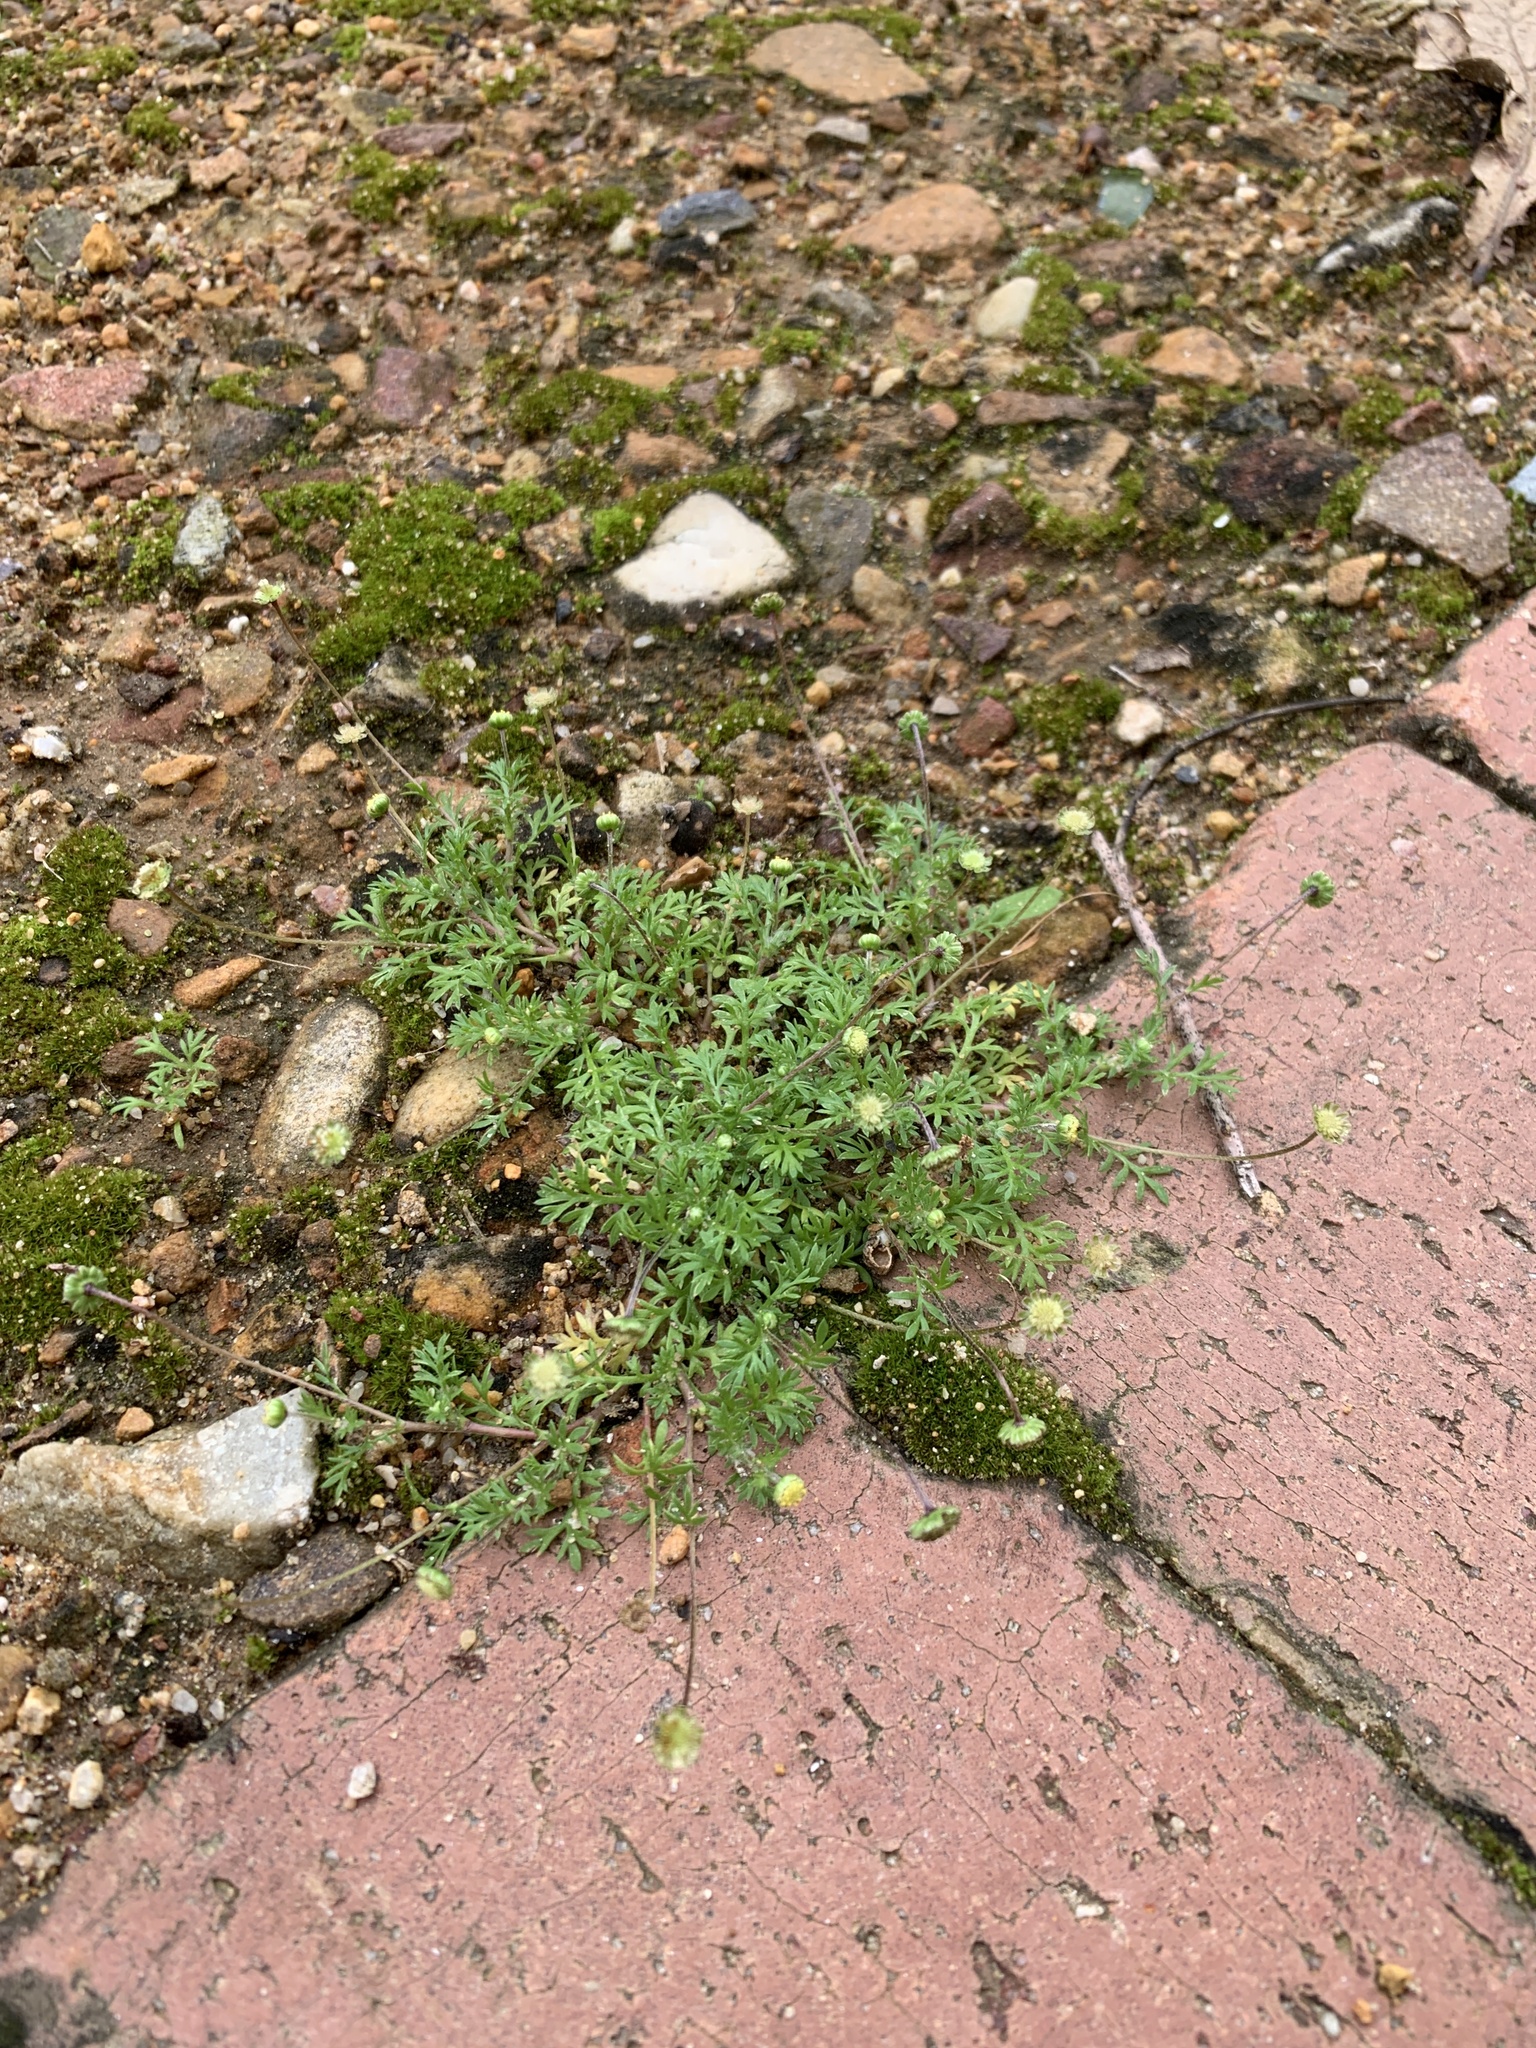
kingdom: Plantae
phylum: Tracheophyta
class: Magnoliopsida
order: Asterales
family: Asteraceae
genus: Cotula
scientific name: Cotula australis
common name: Australian waterbuttons
